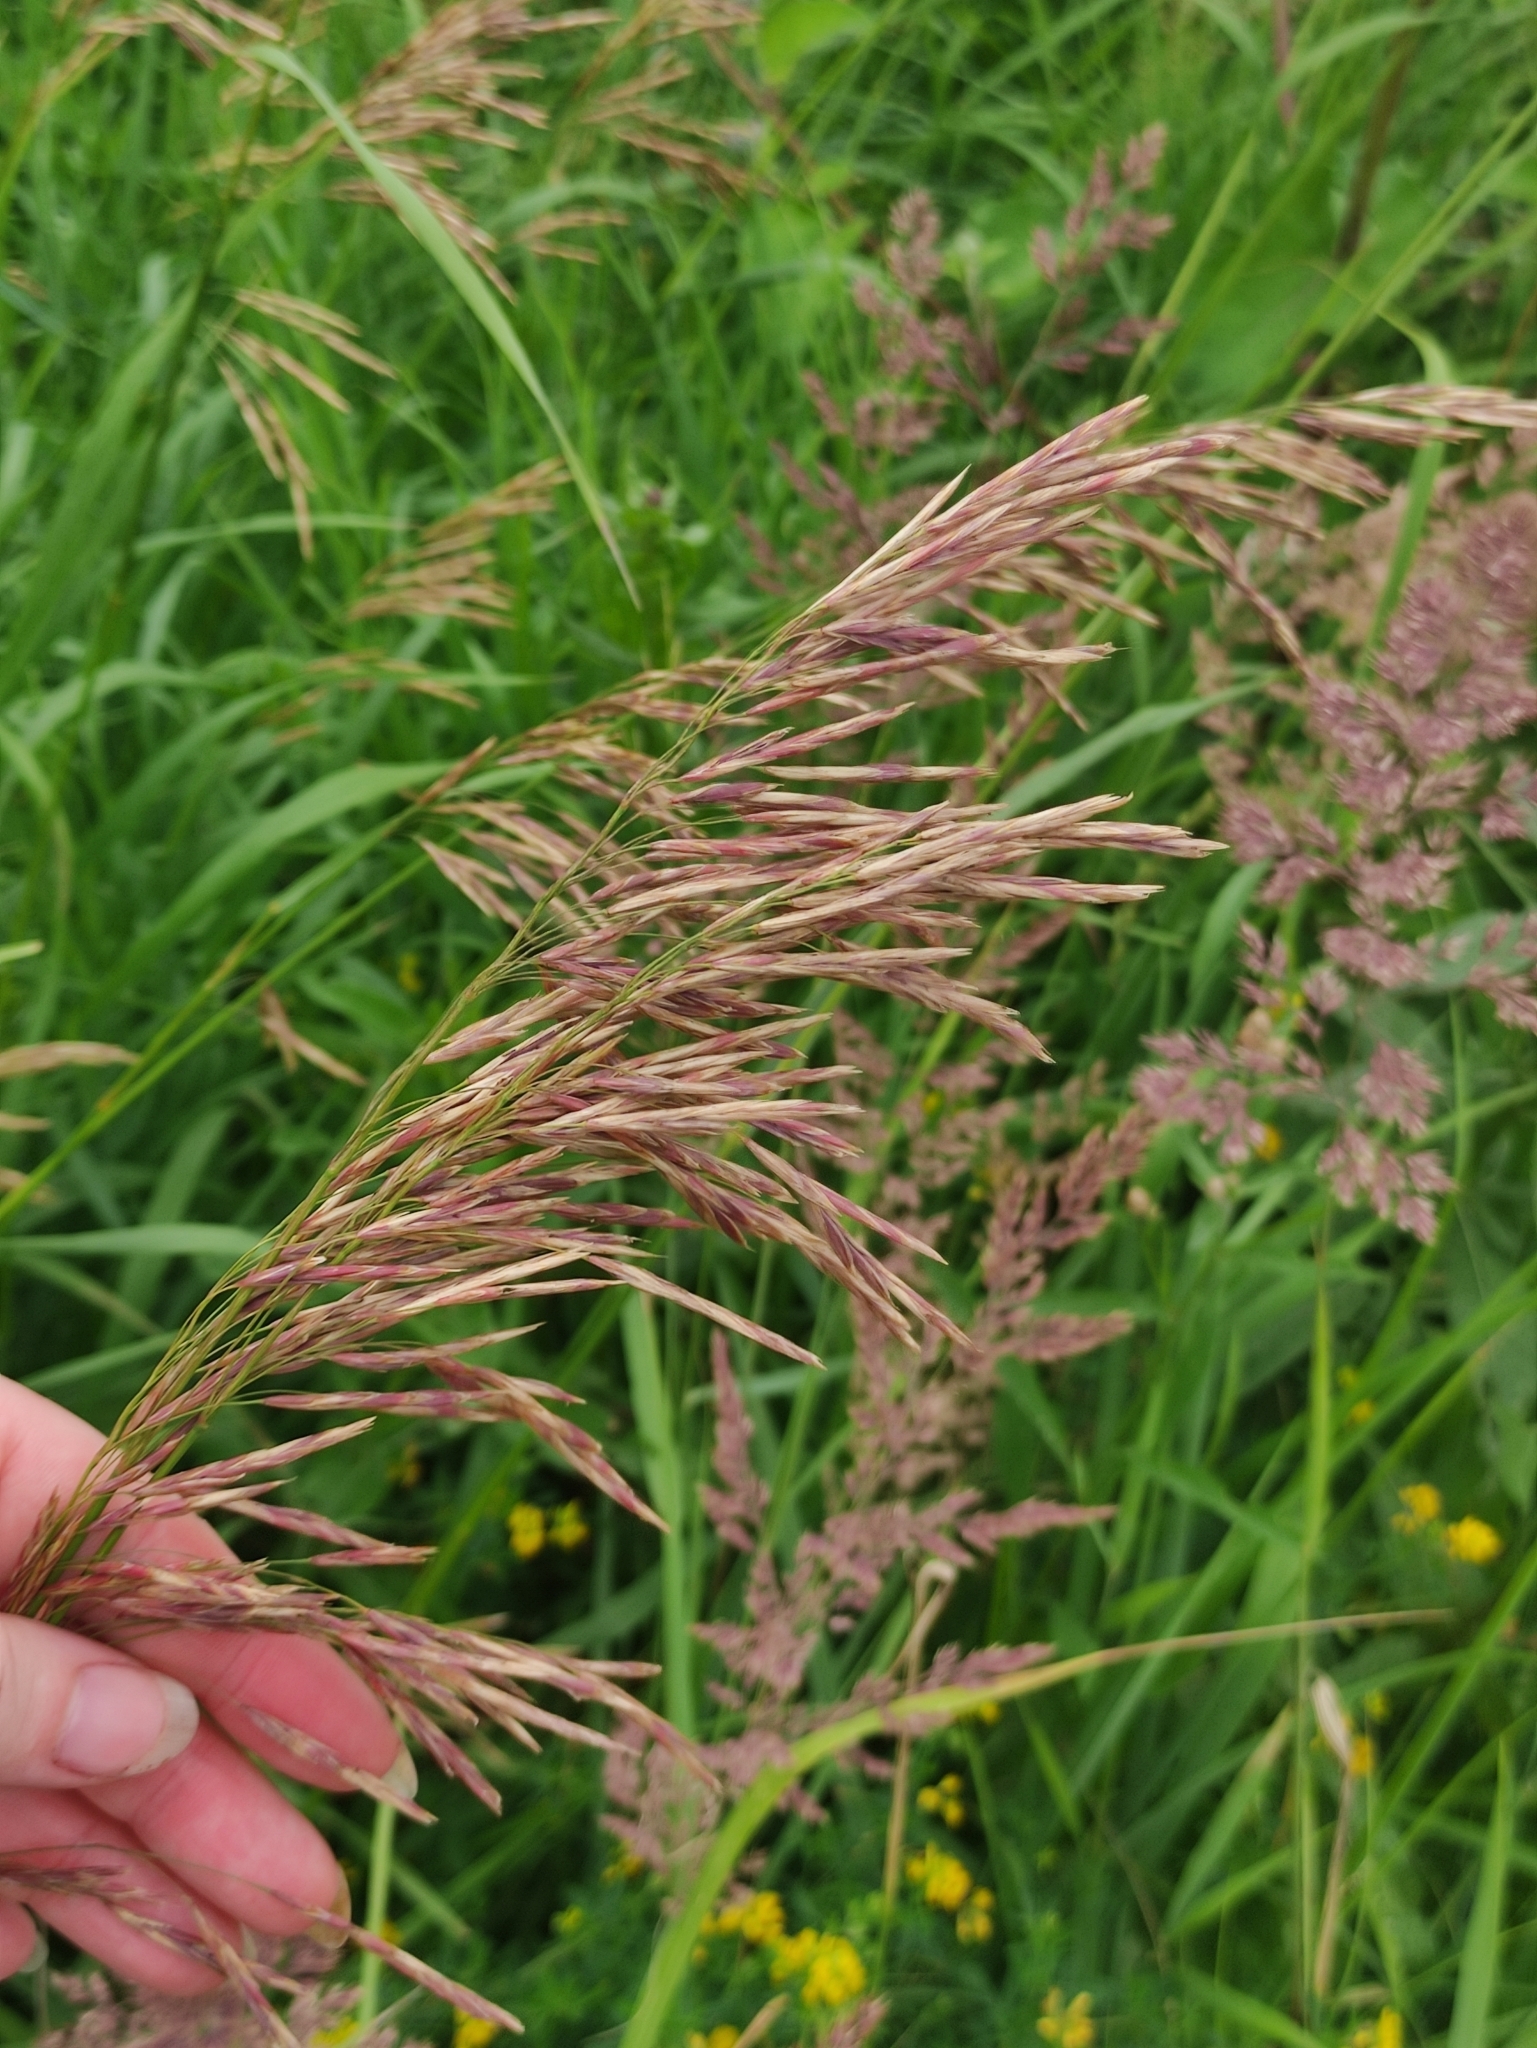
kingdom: Plantae
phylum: Tracheophyta
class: Liliopsida
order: Poales
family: Poaceae
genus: Bromus
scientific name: Bromus inermis
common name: Smooth brome
